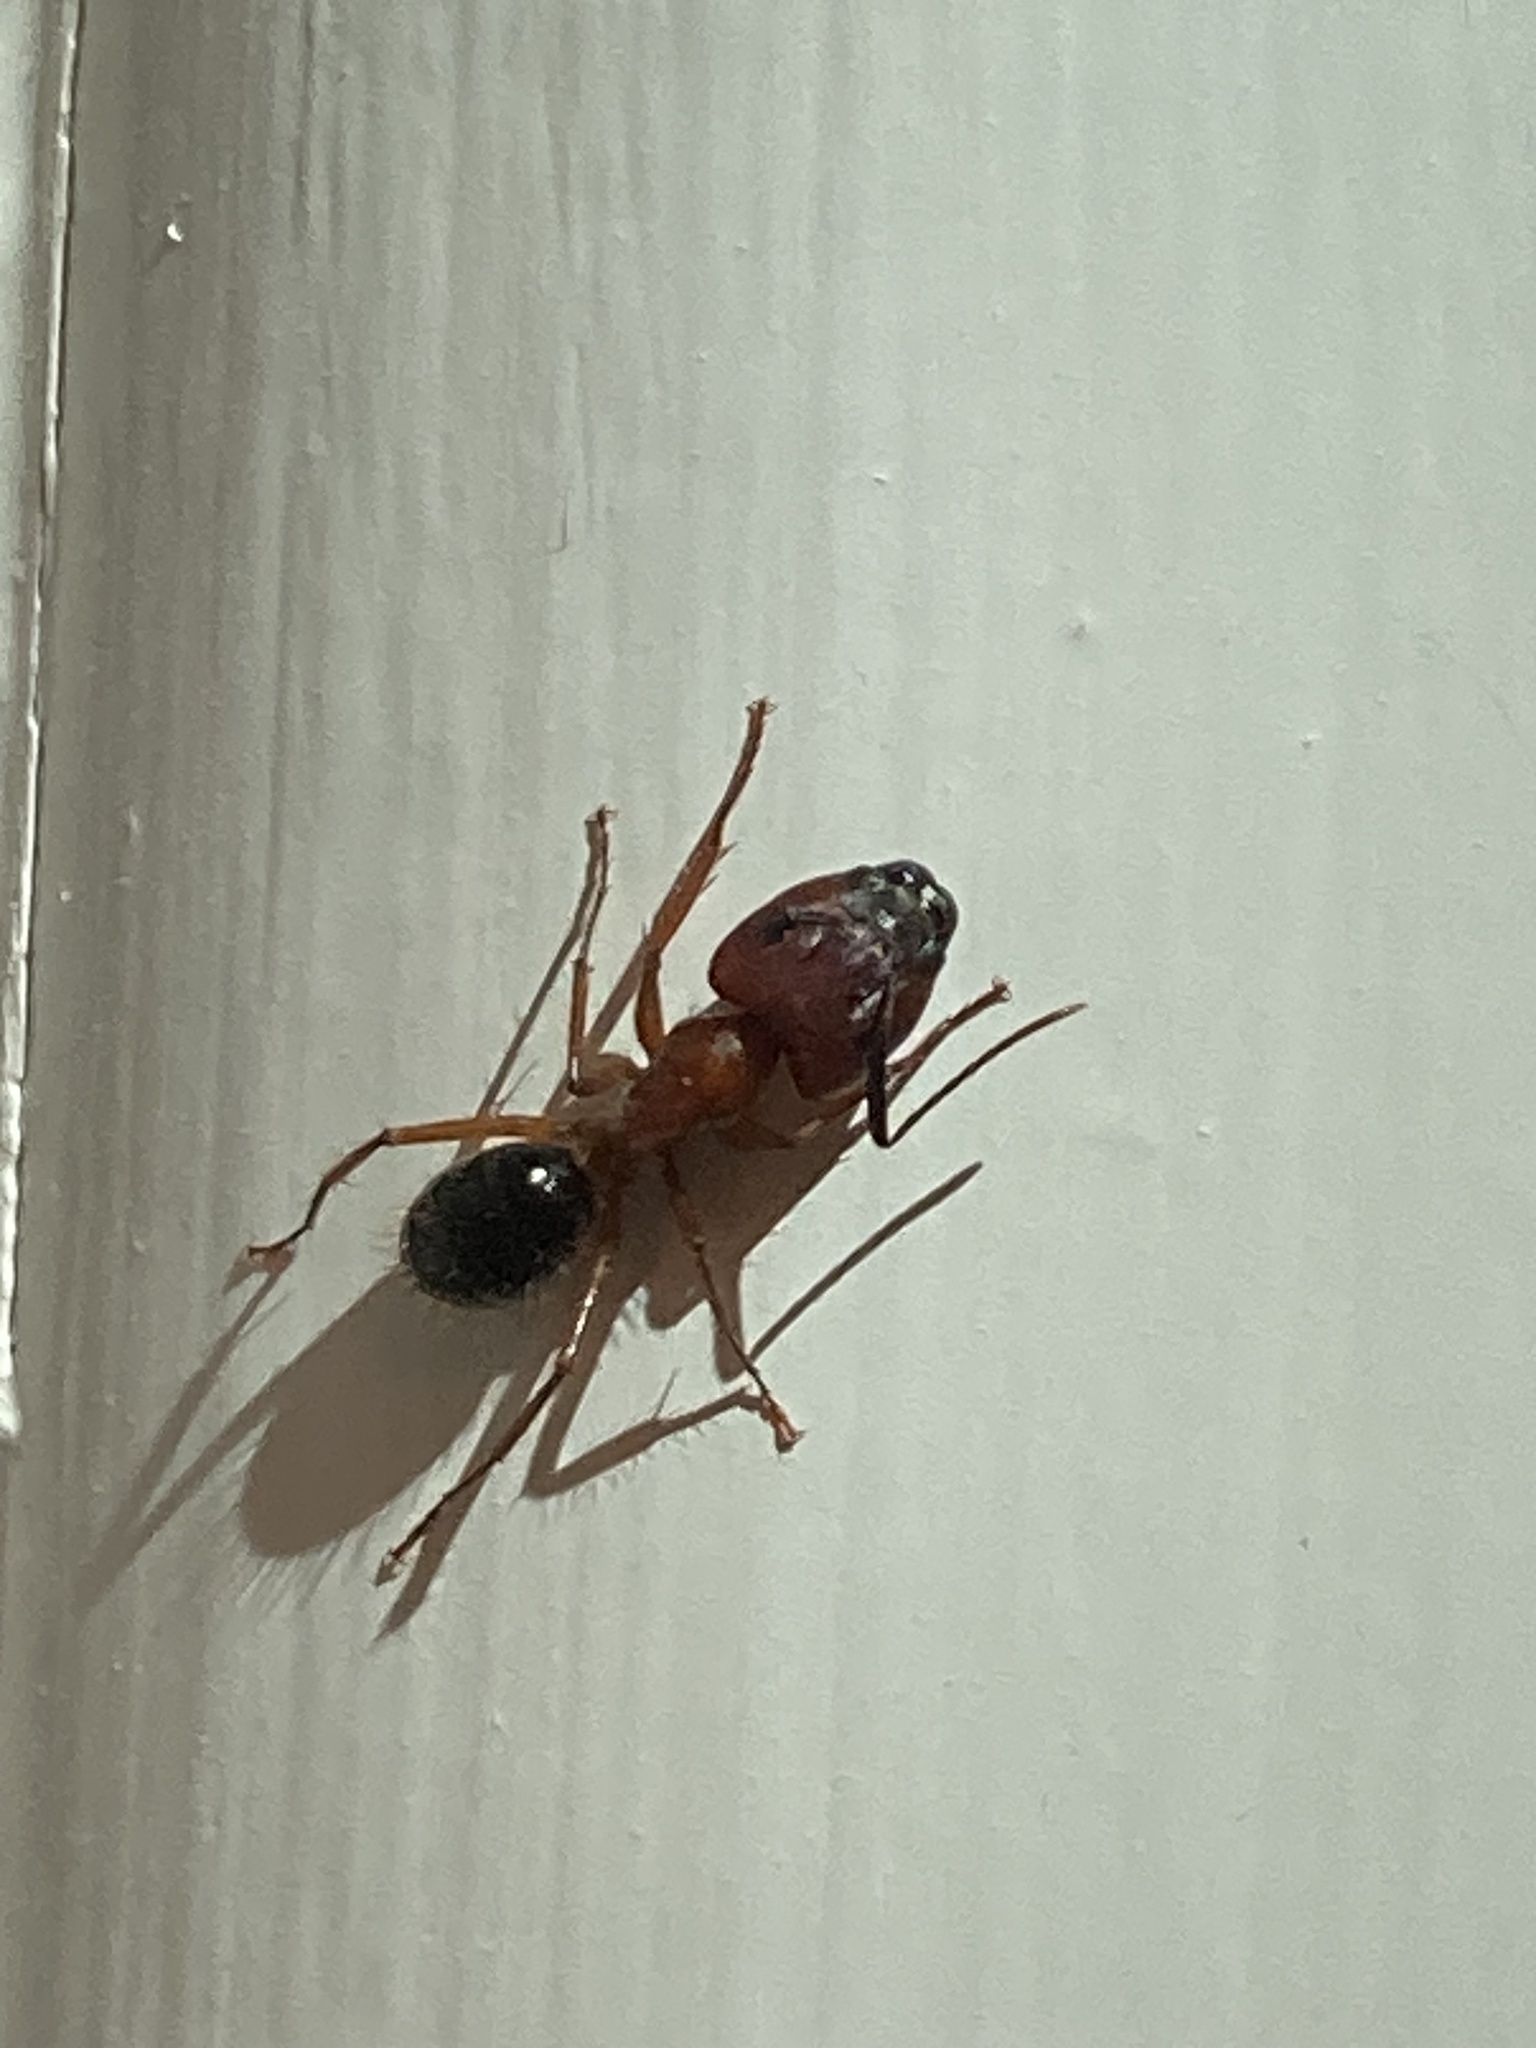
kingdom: Animalia
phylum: Arthropoda
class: Insecta
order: Hymenoptera
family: Formicidae
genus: Camponotus
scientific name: Camponotus floridanus
